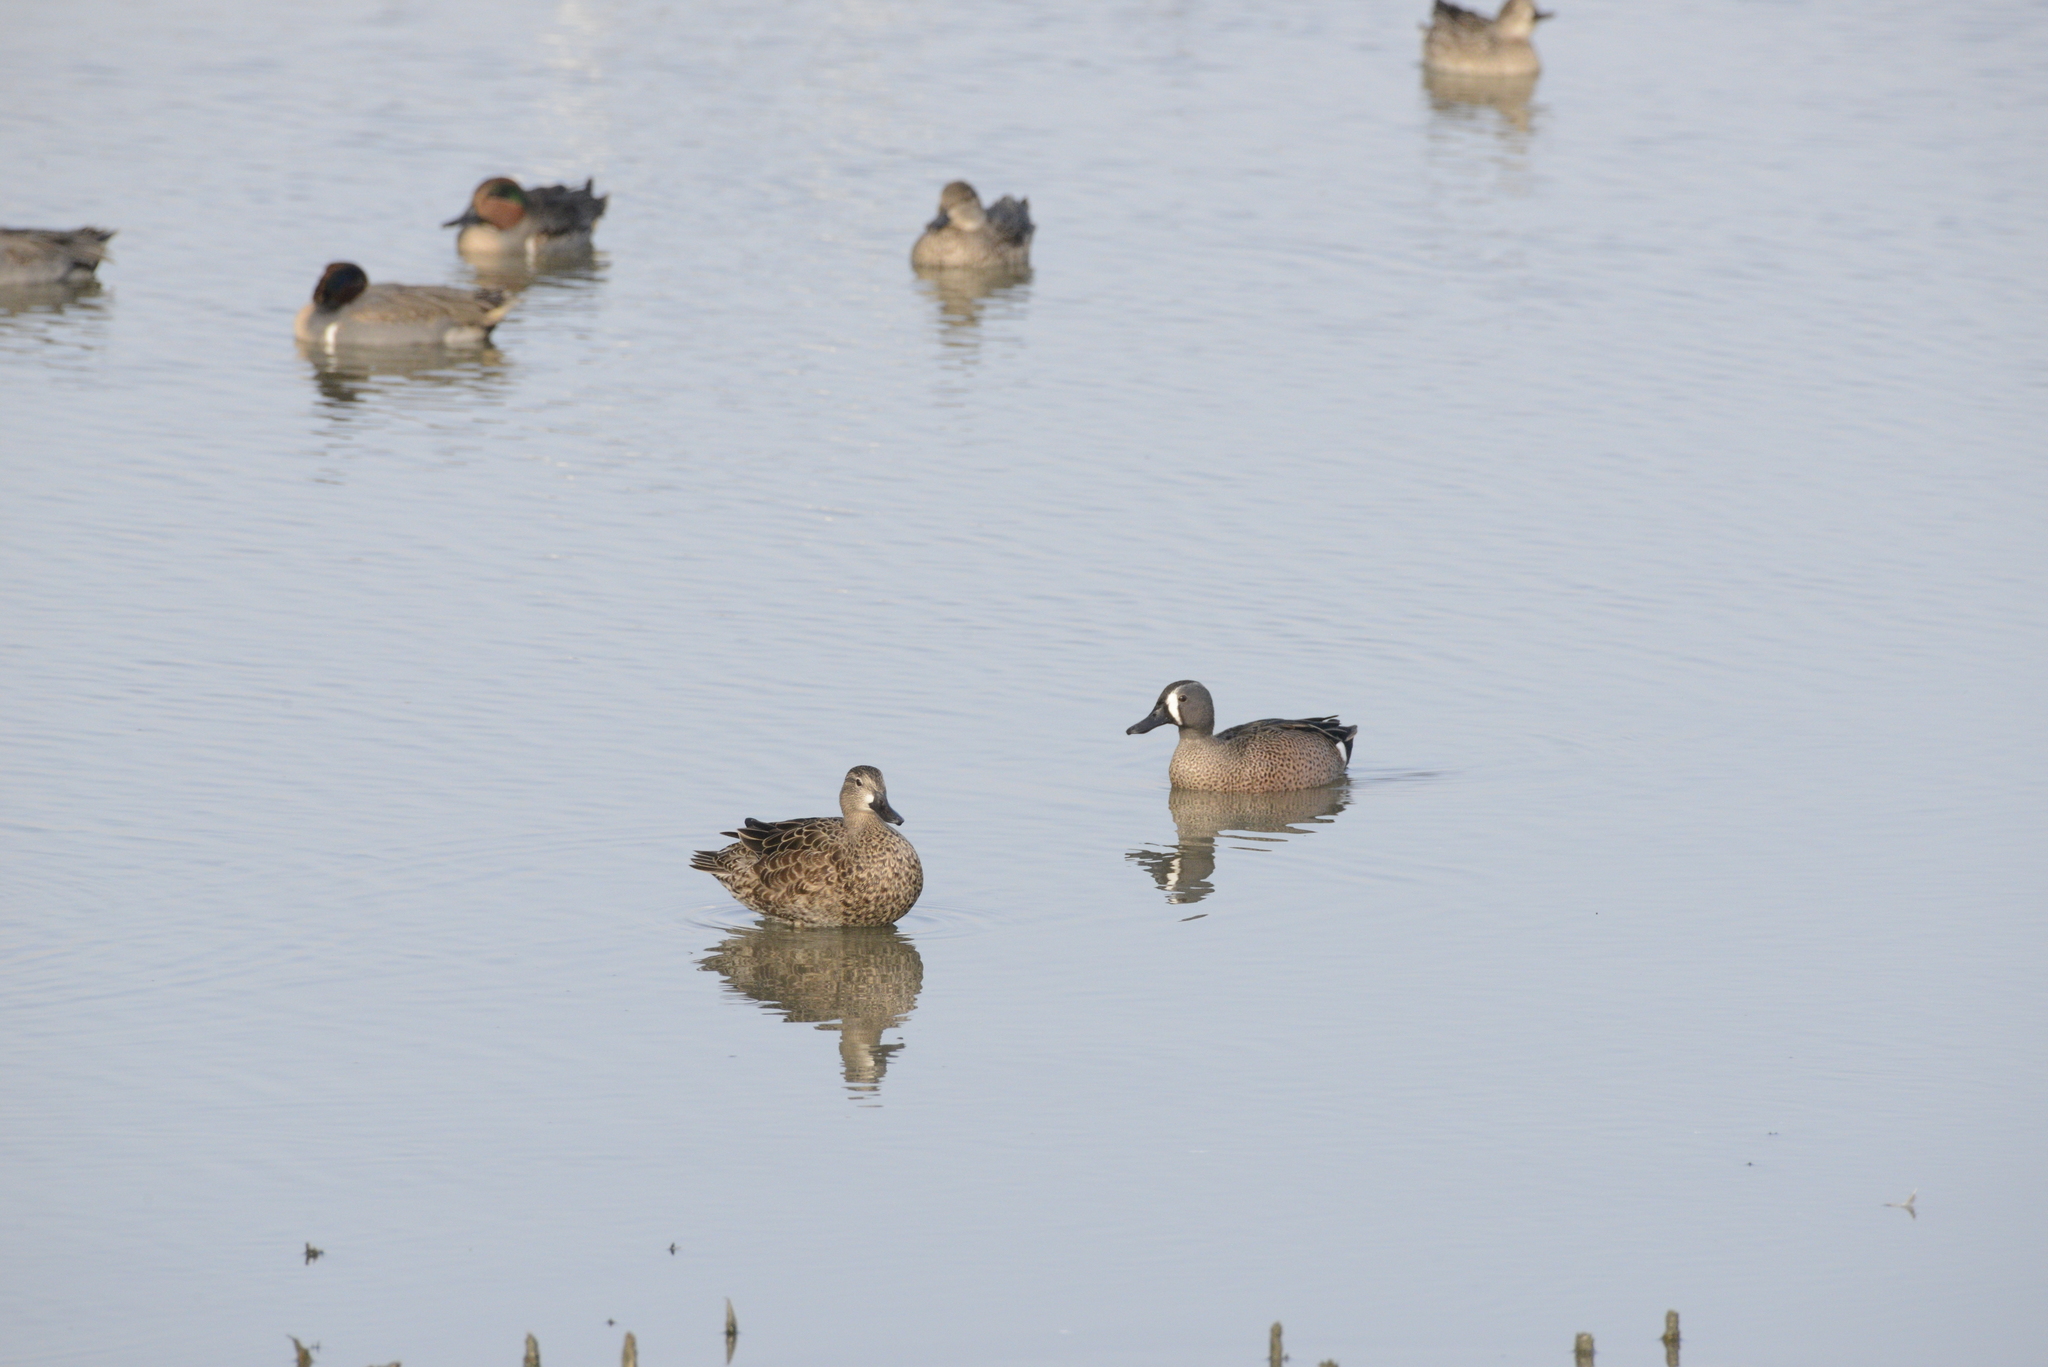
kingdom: Animalia
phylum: Chordata
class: Aves
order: Anseriformes
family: Anatidae
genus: Spatula
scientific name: Spatula discors
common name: Blue-winged teal
